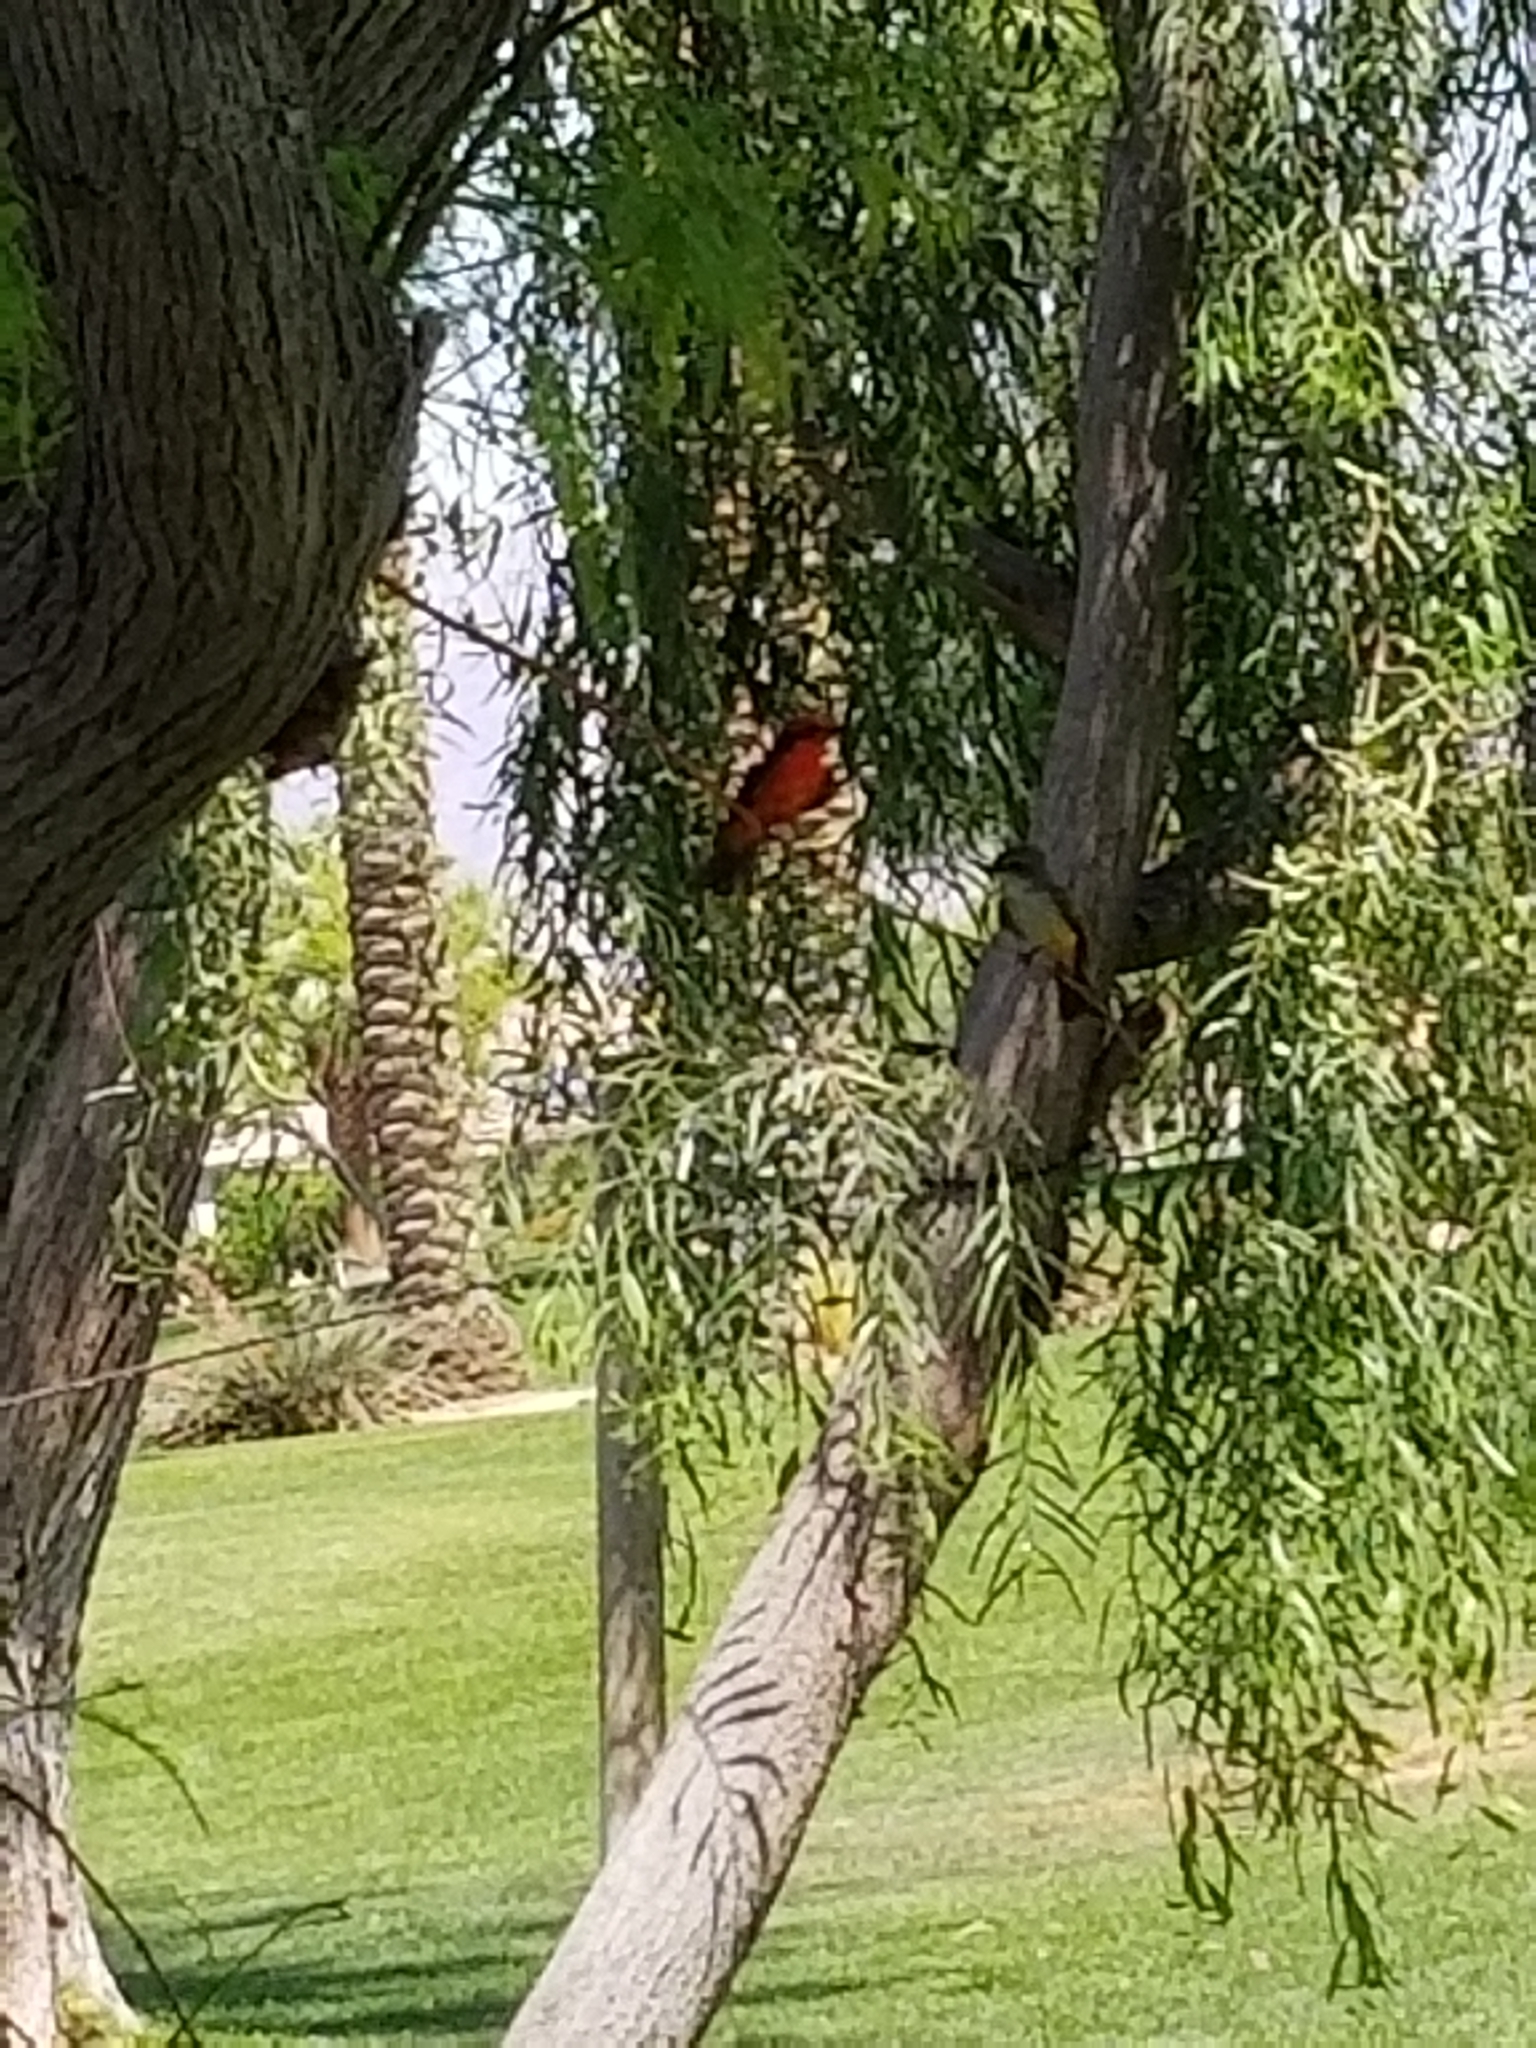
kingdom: Animalia
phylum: Chordata
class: Aves
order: Passeriformes
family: Tyrannidae
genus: Pyrocephalus
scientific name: Pyrocephalus rubinus
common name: Vermilion flycatcher
